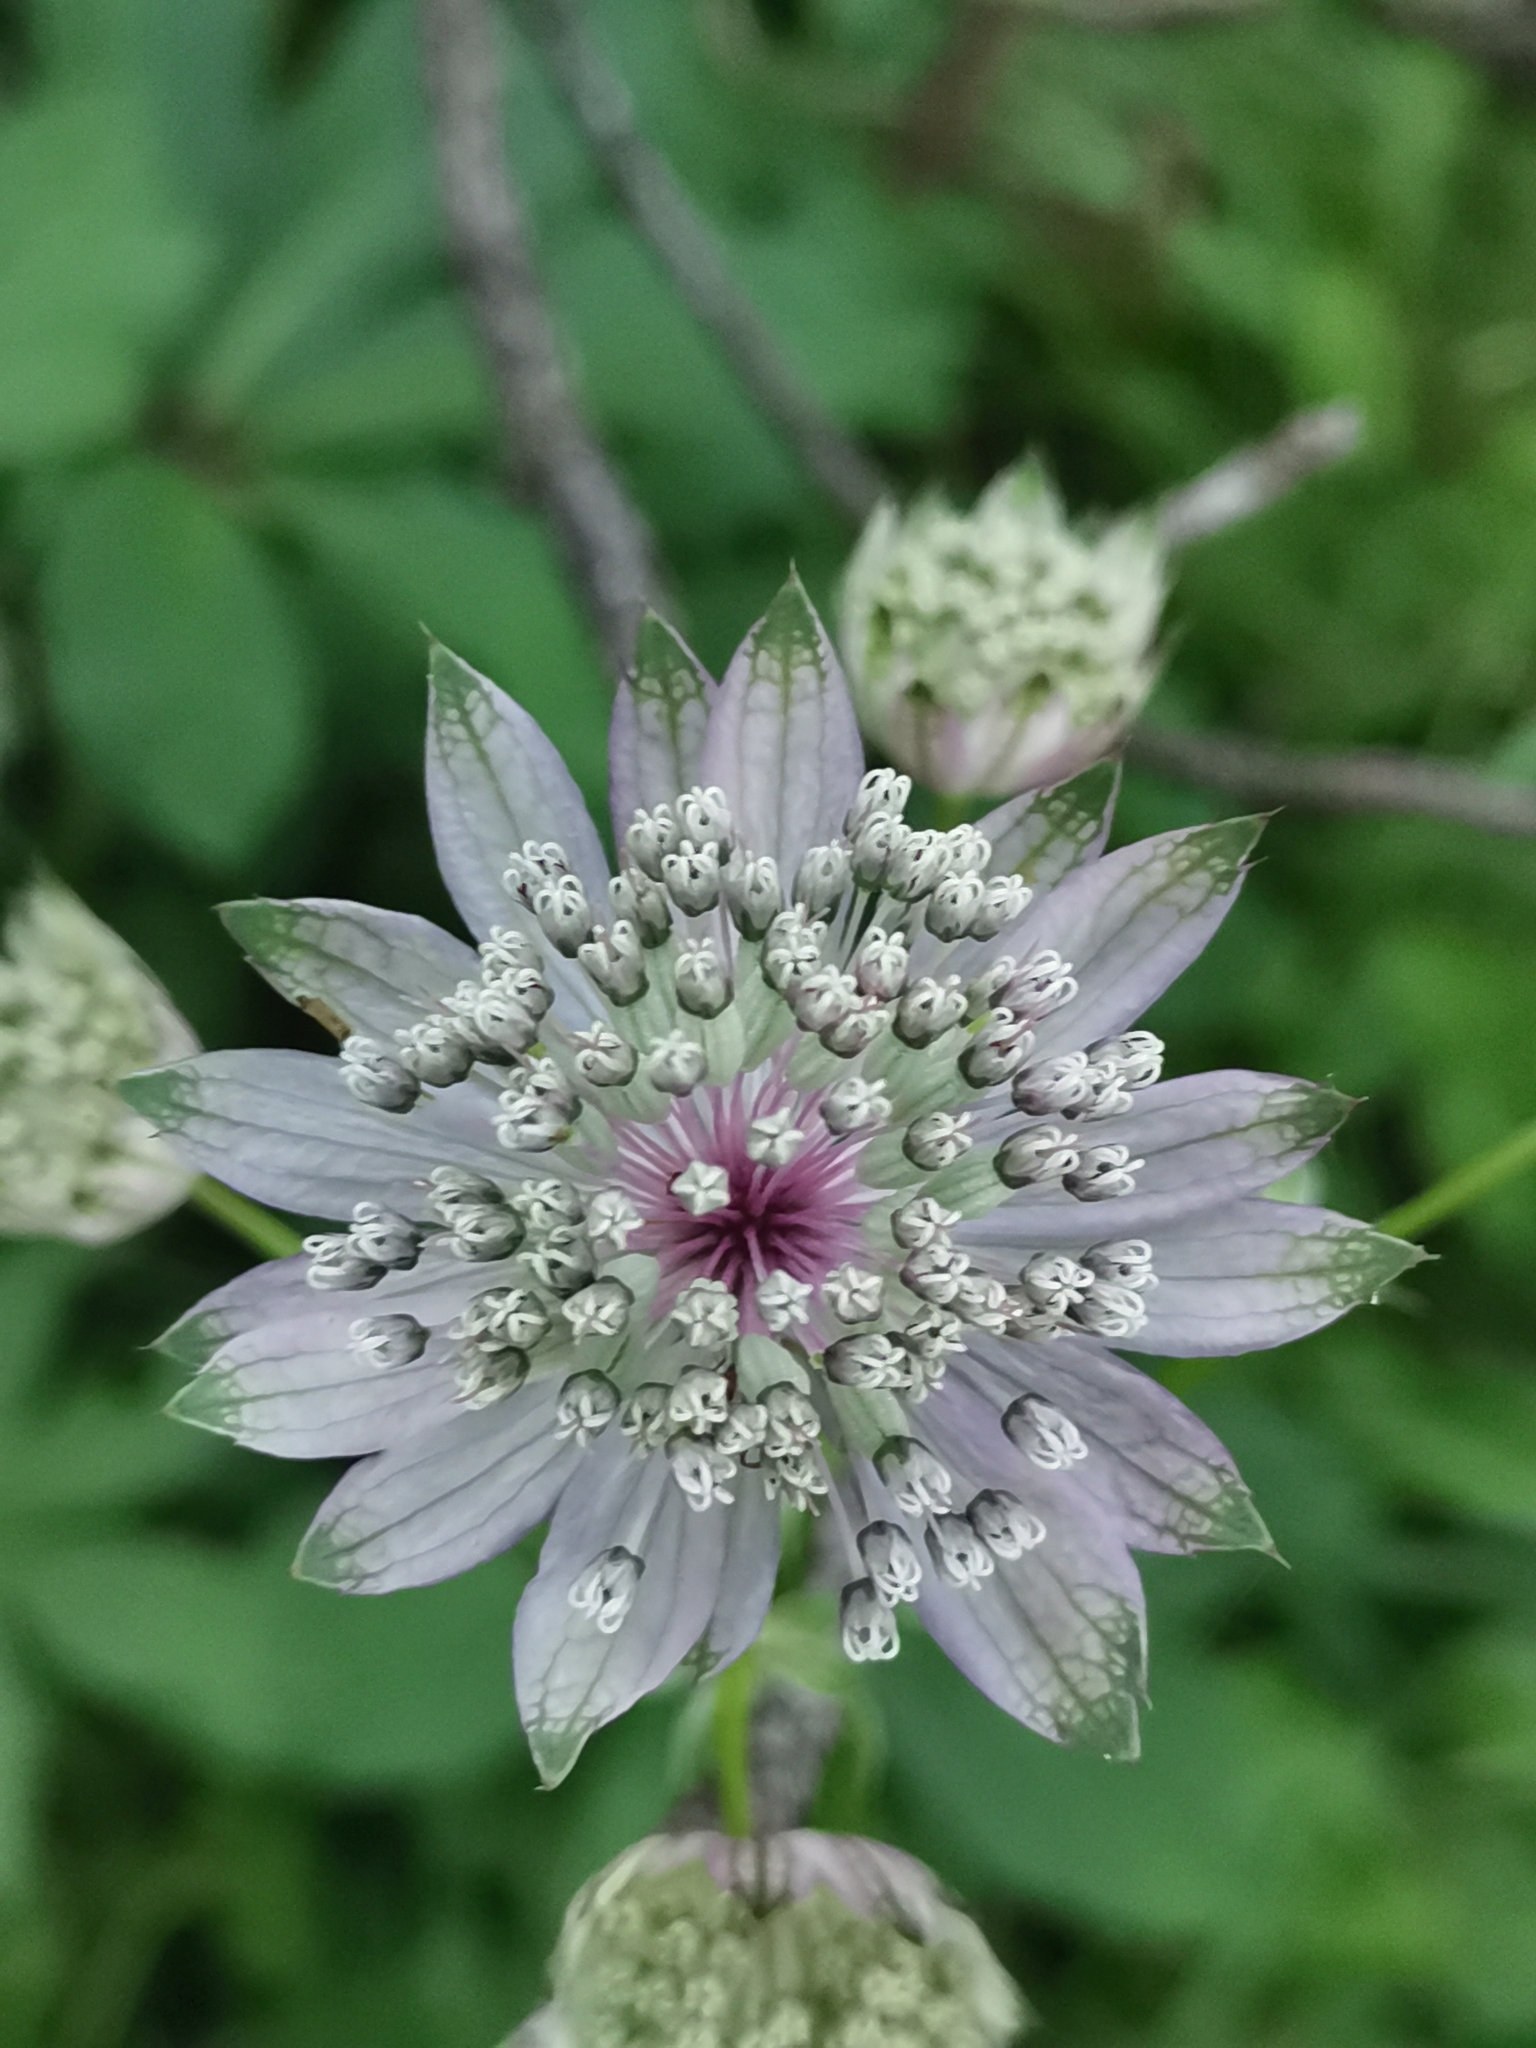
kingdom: Plantae
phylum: Tracheophyta
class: Magnoliopsida
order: Apiales
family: Apiaceae
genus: Astrantia
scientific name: Astrantia major
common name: Greater masterwort
